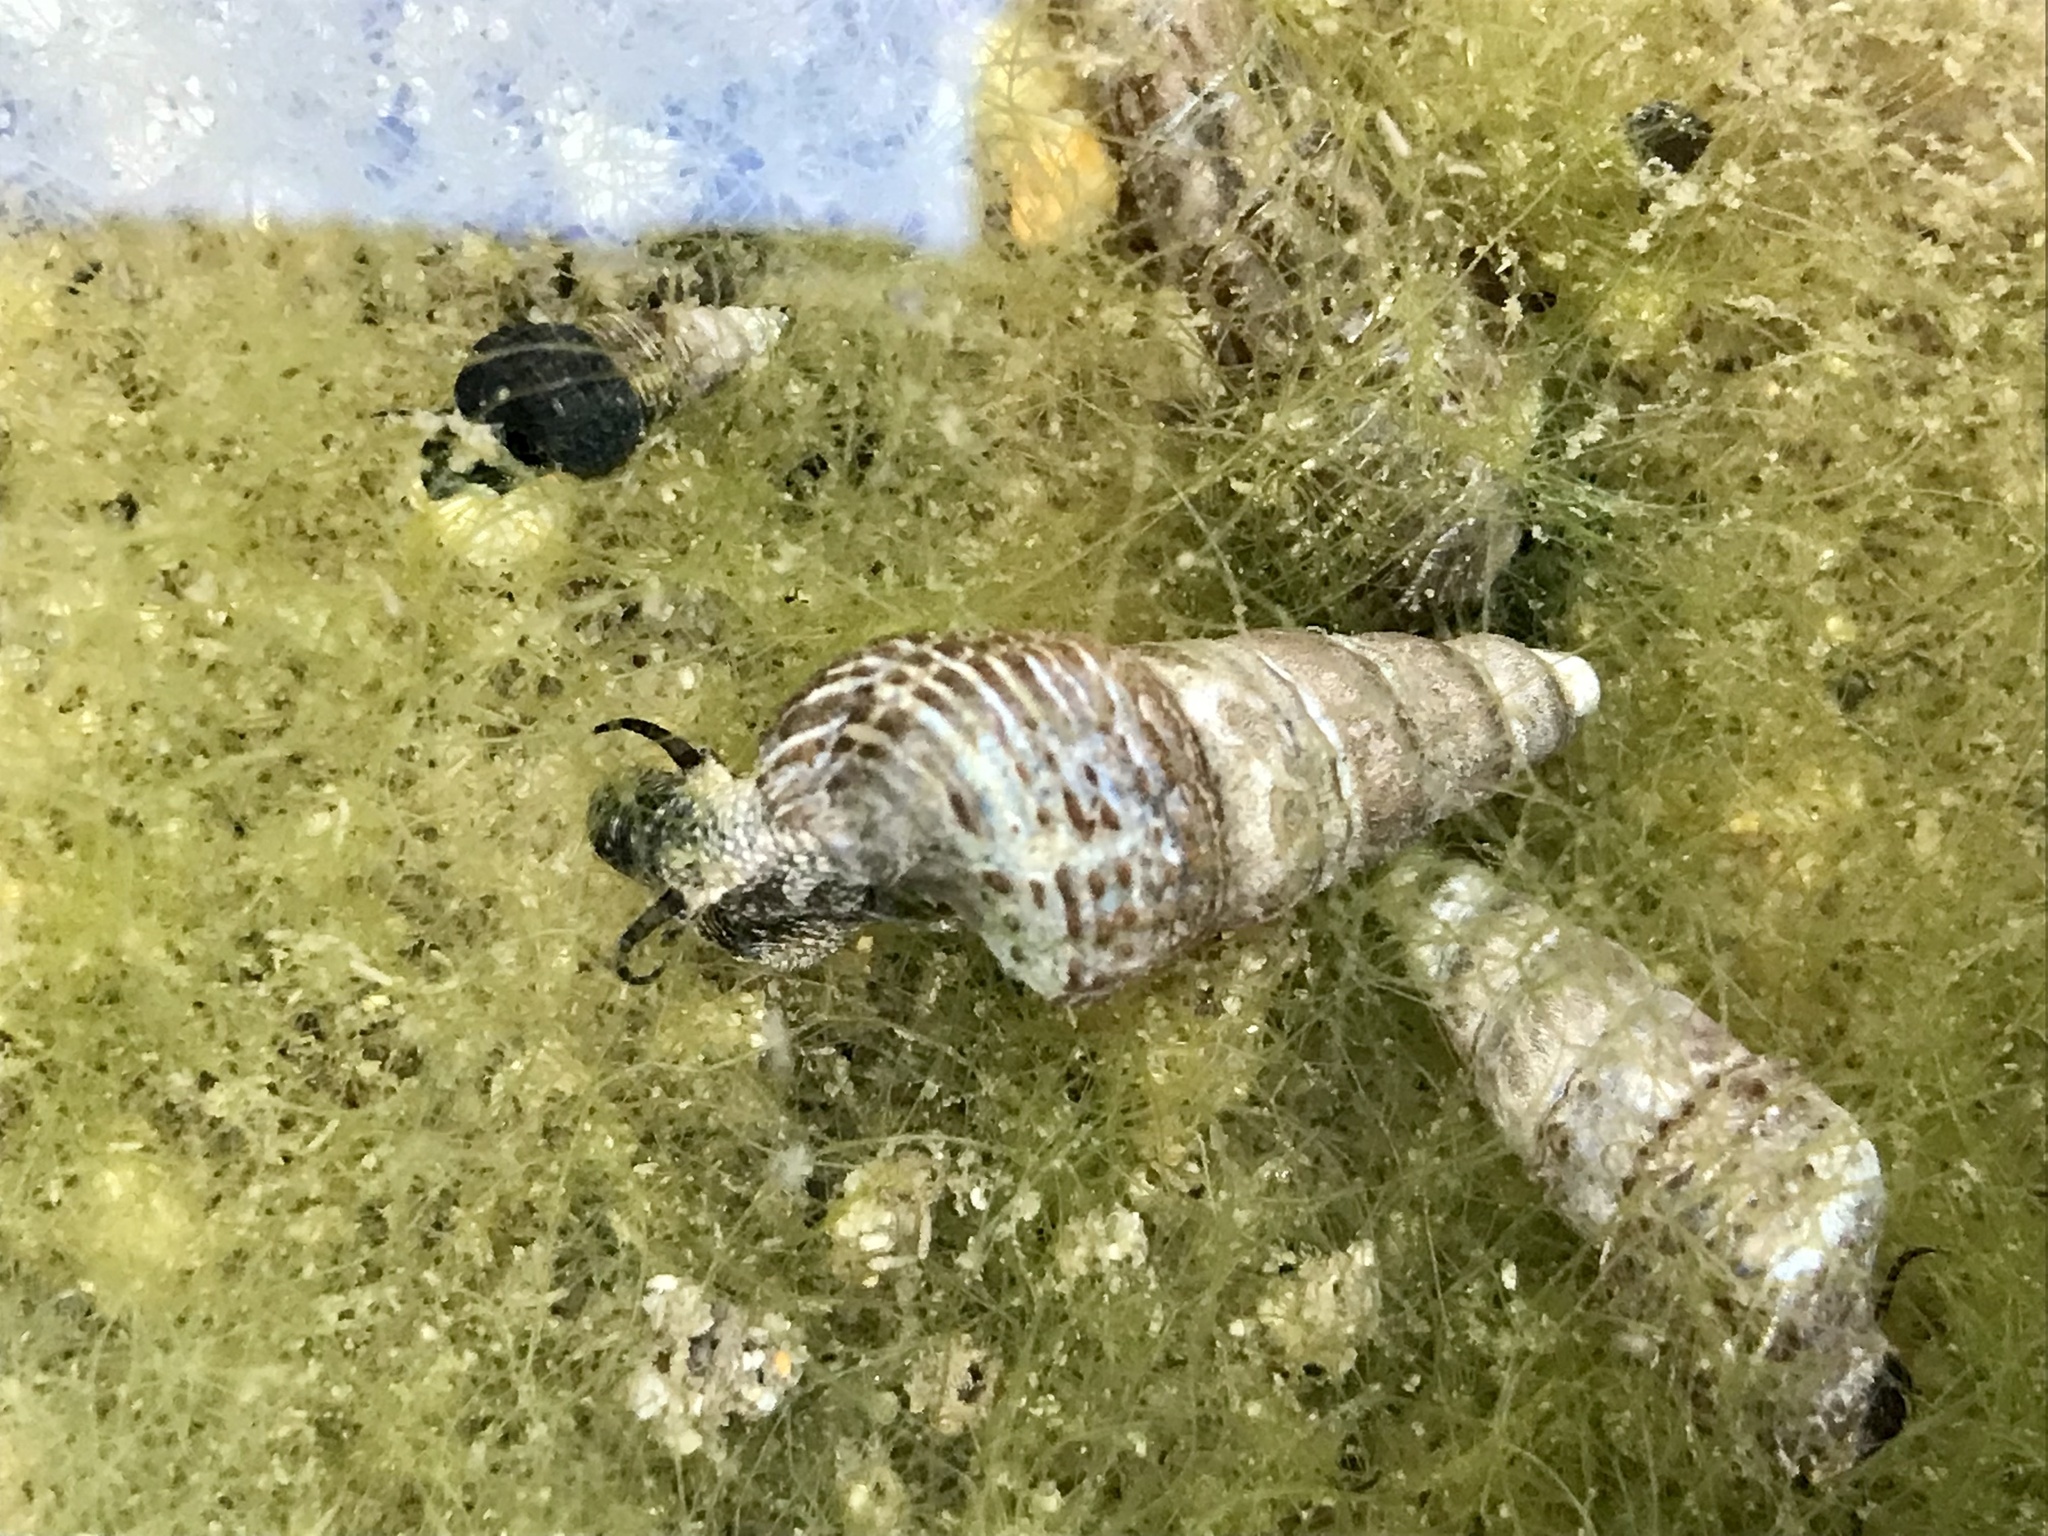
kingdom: Animalia
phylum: Mollusca
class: Gastropoda
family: Batillariidae
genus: Batillaria
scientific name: Batillaria attramentaria
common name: Japanese false cerith
